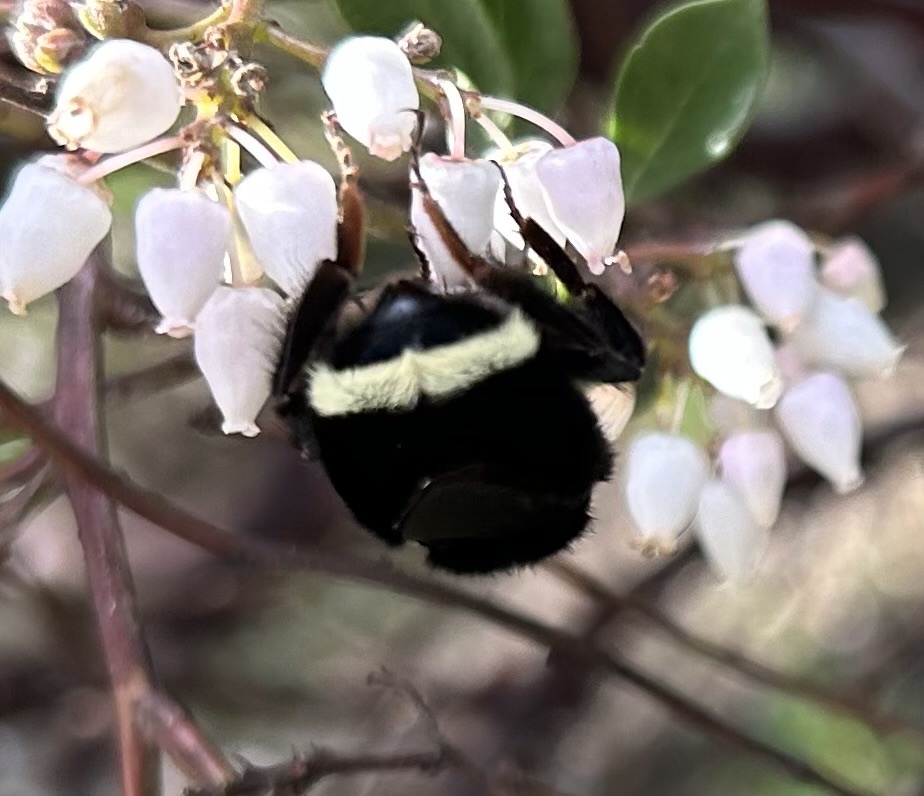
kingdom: Animalia
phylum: Arthropoda
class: Insecta
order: Hymenoptera
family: Apidae
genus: Bombus
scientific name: Bombus vosnesenskii
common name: Vosnesensky bumble bee
